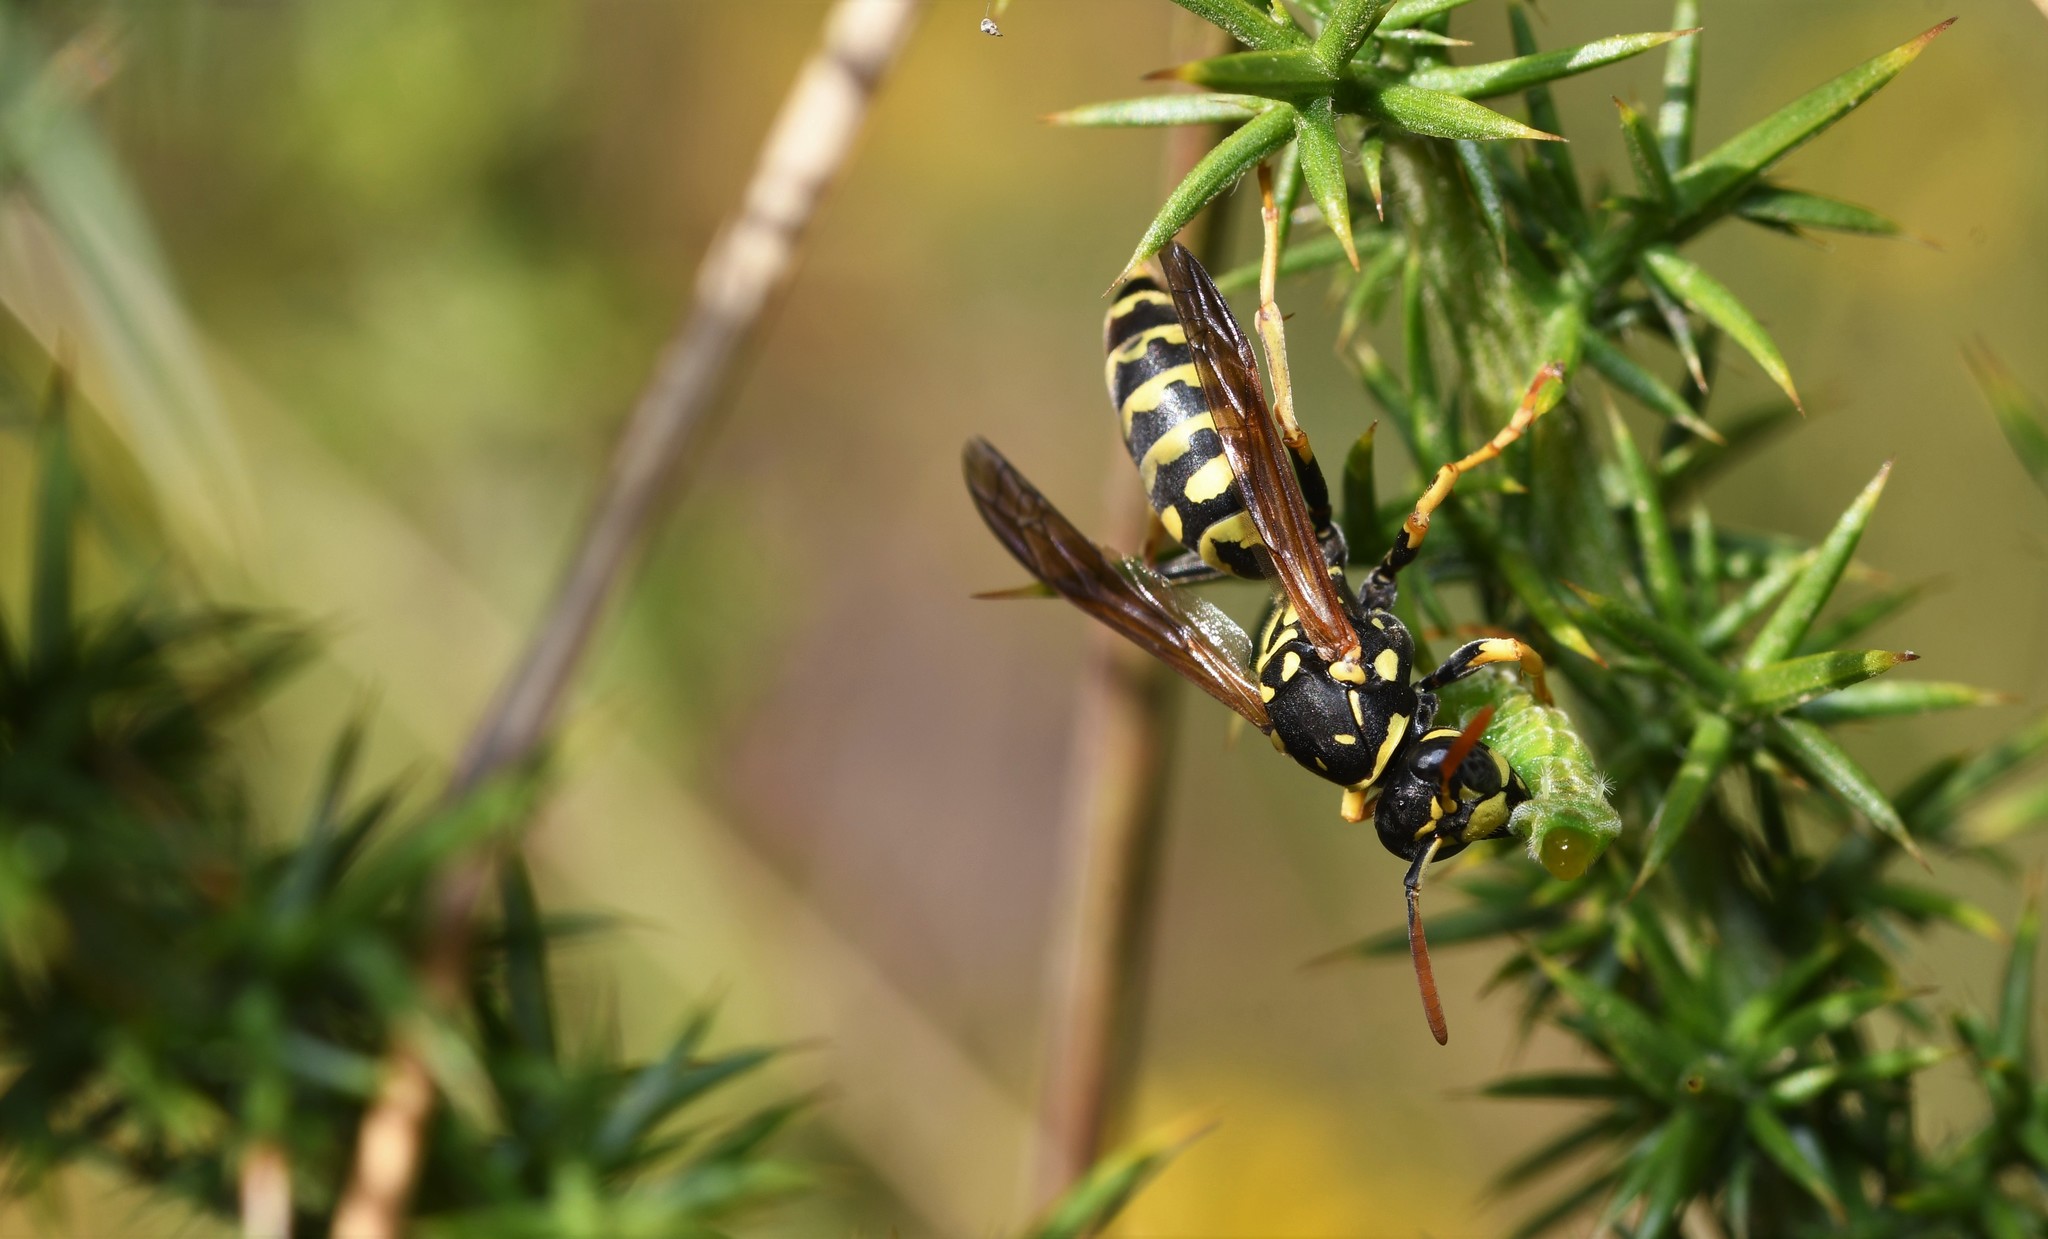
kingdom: Animalia
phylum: Arthropoda
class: Insecta
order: Hymenoptera
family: Eumenidae
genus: Polistes
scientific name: Polistes dominula
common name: Paper wasp
